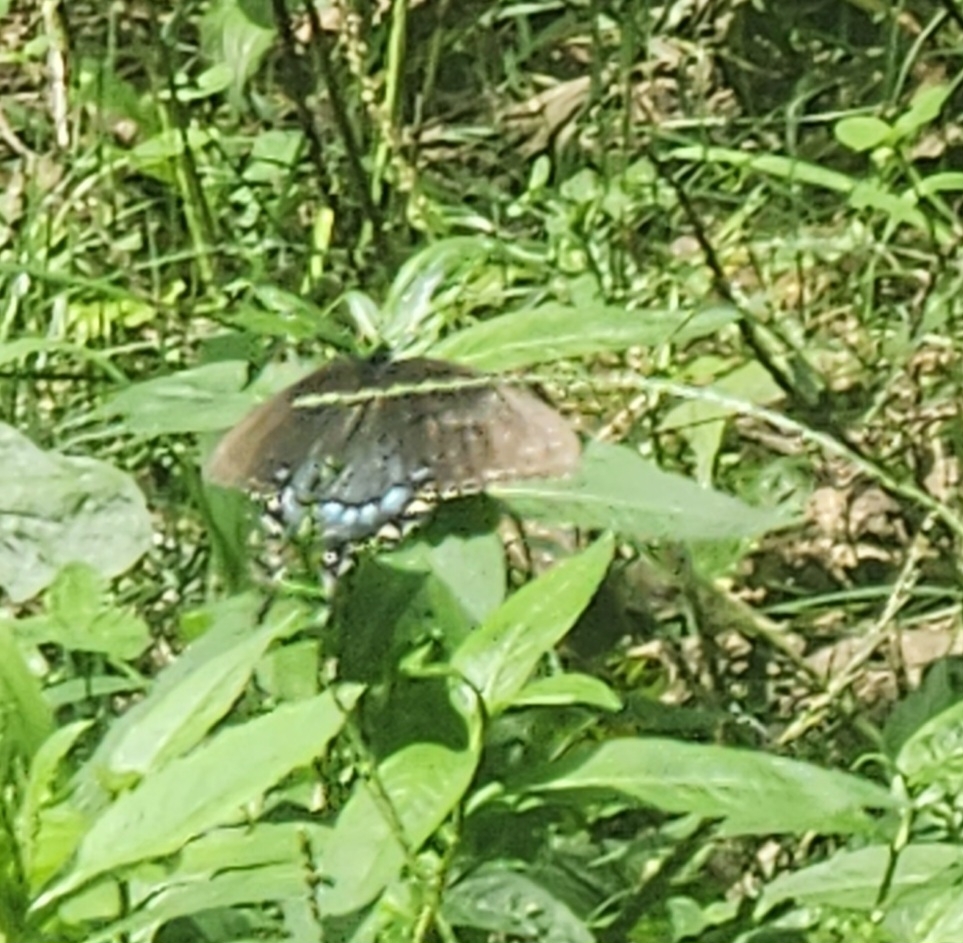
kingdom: Animalia
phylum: Arthropoda
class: Insecta
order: Lepidoptera
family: Papilionidae
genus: Papilio
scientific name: Papilio glaucus
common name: Tiger swallowtail
